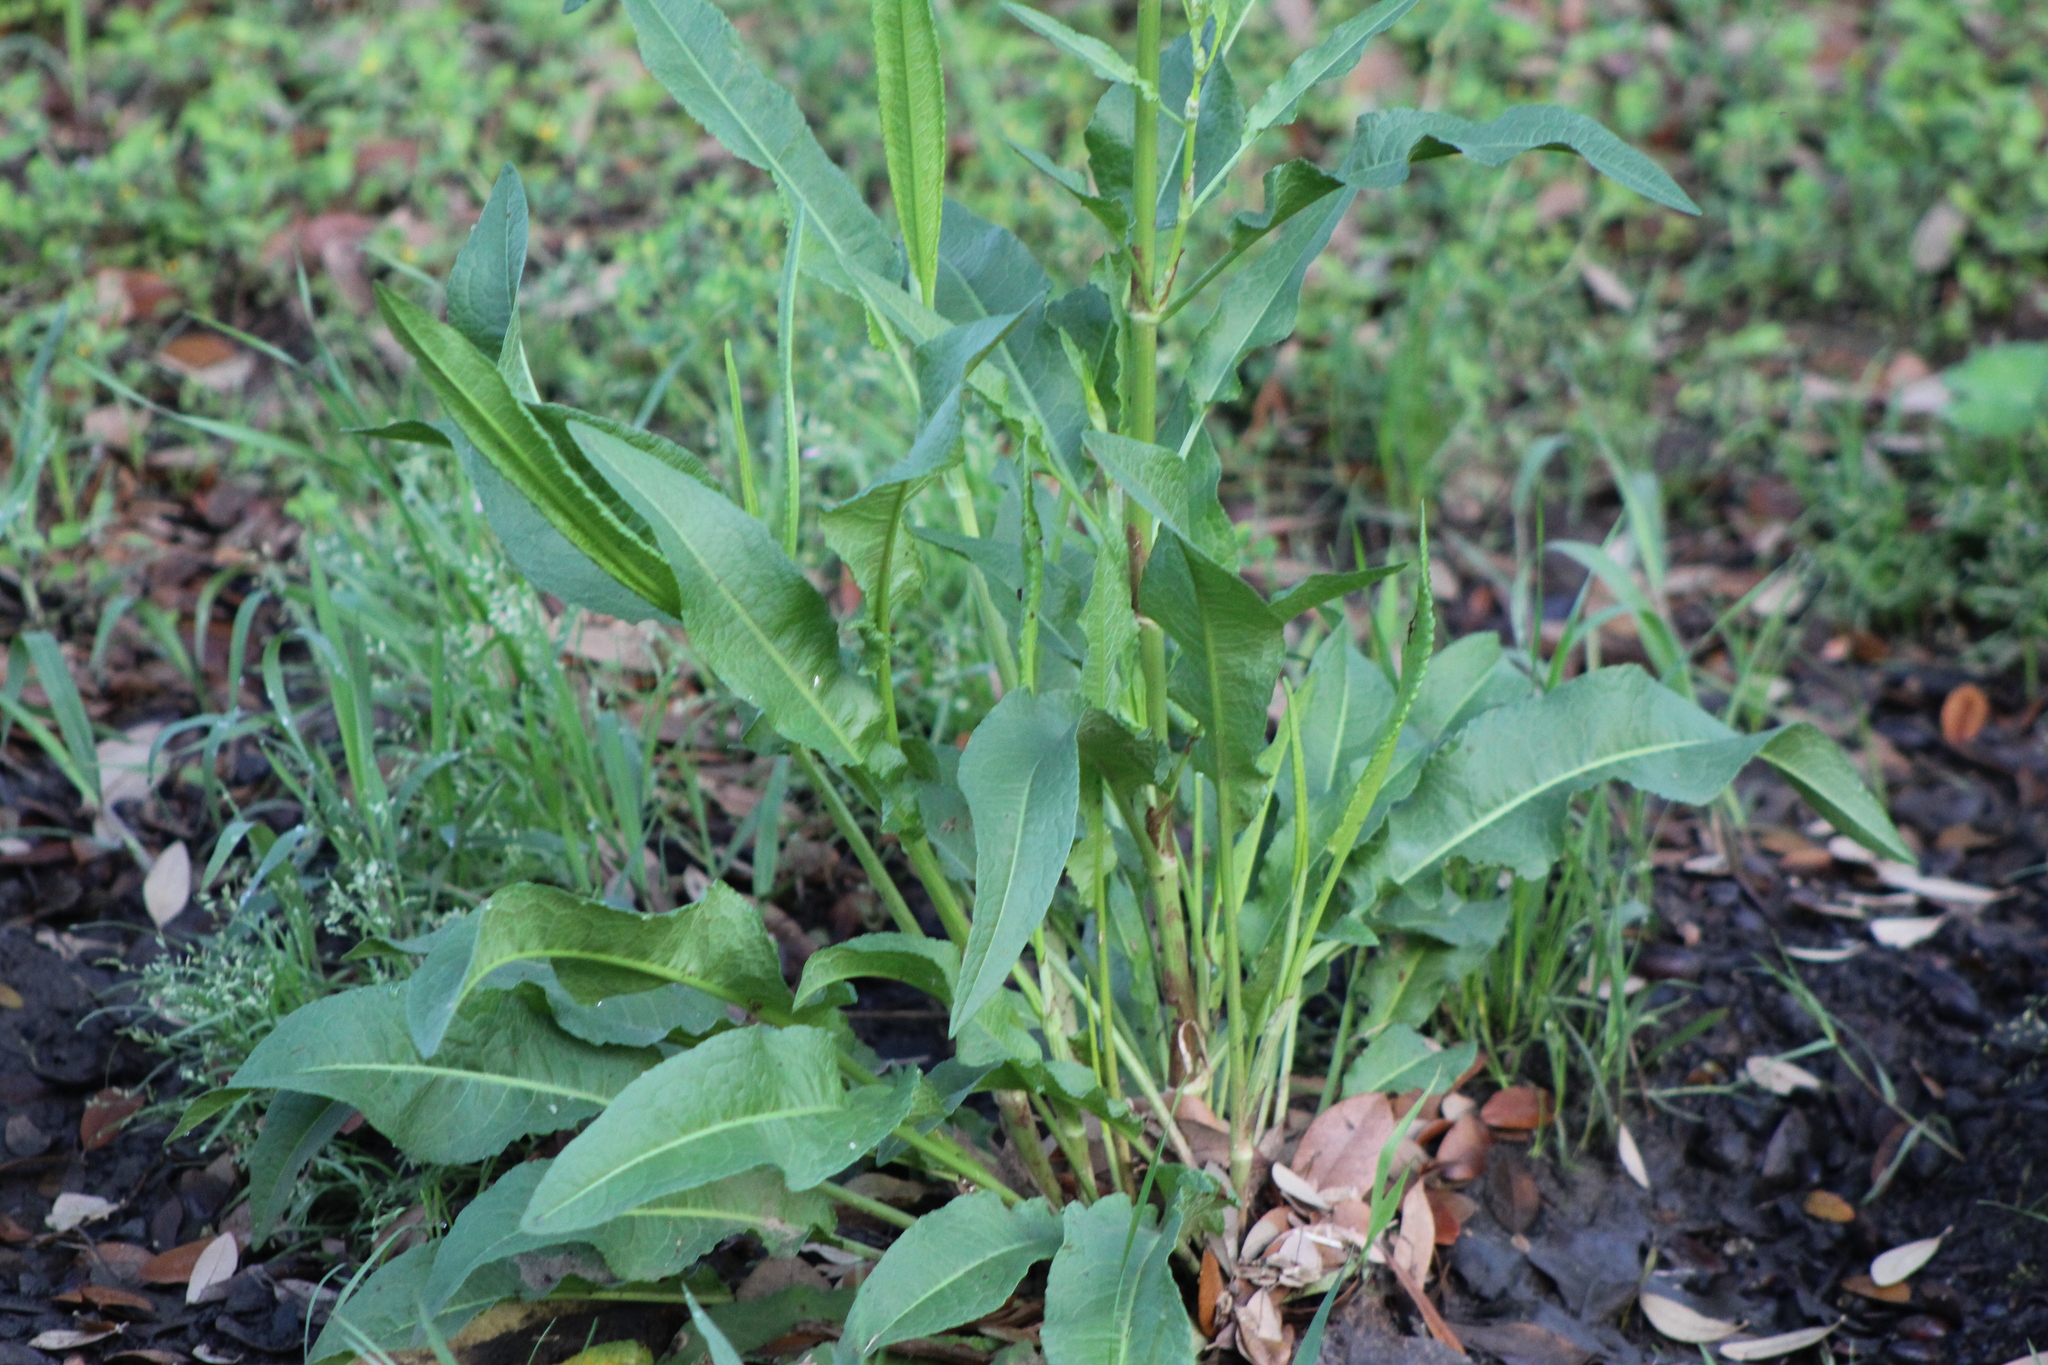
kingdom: Plantae
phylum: Tracheophyta
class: Magnoliopsida
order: Caryophyllales
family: Polygonaceae
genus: Rumex
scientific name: Rumex crispus
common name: Curled dock
